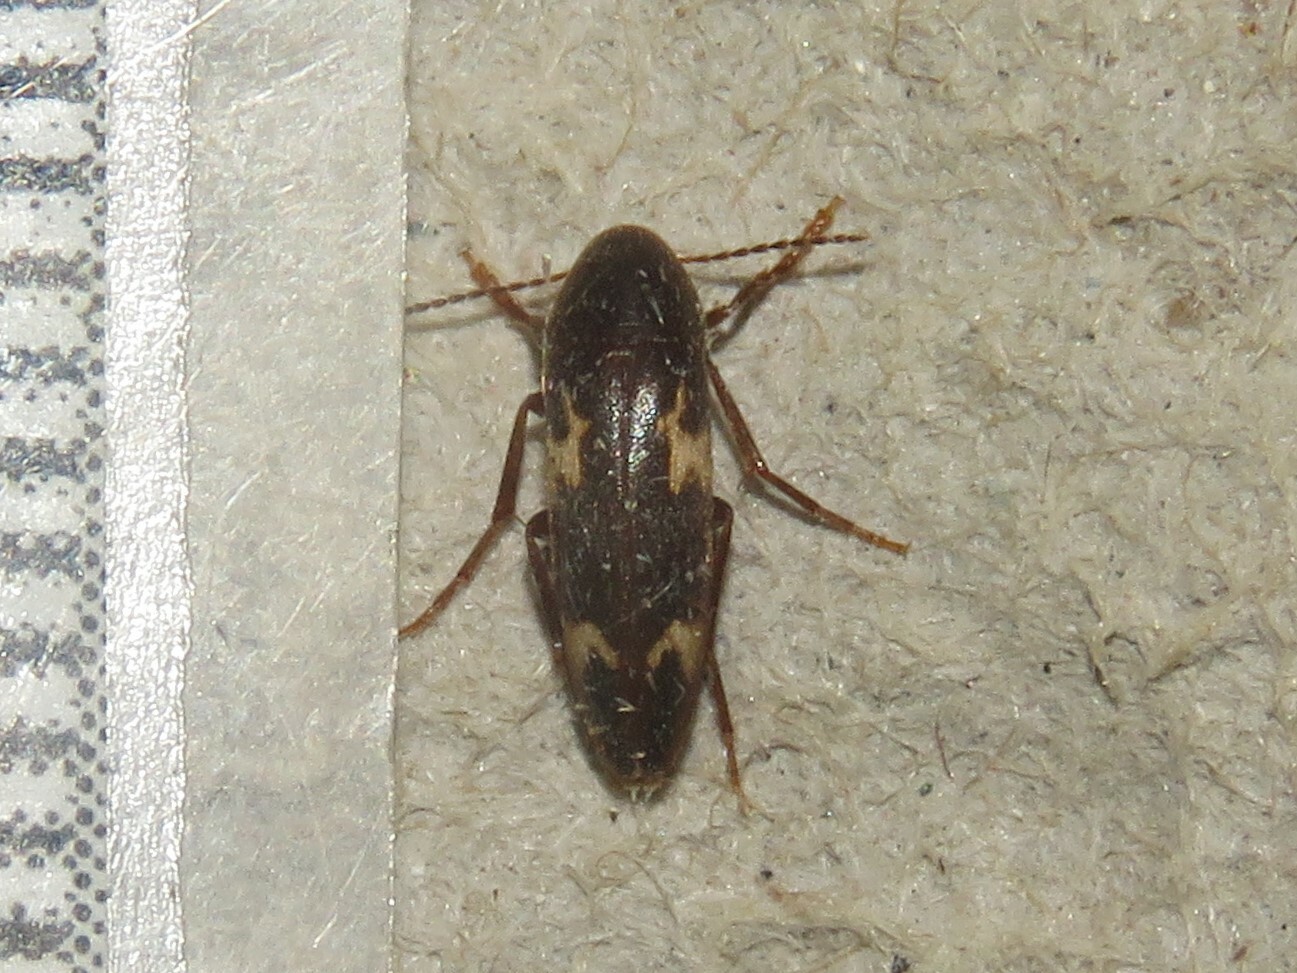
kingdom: Animalia
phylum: Arthropoda
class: Insecta
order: Coleoptera
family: Melandryidae
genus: Dircaea
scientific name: Dircaea liturata
